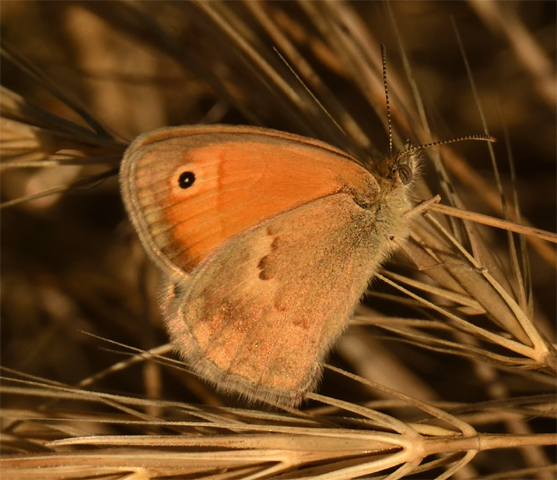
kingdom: Animalia
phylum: Arthropoda
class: Insecta
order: Lepidoptera
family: Nymphalidae
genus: Coenonympha
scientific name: Coenonympha pamphilus
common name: Small heath
